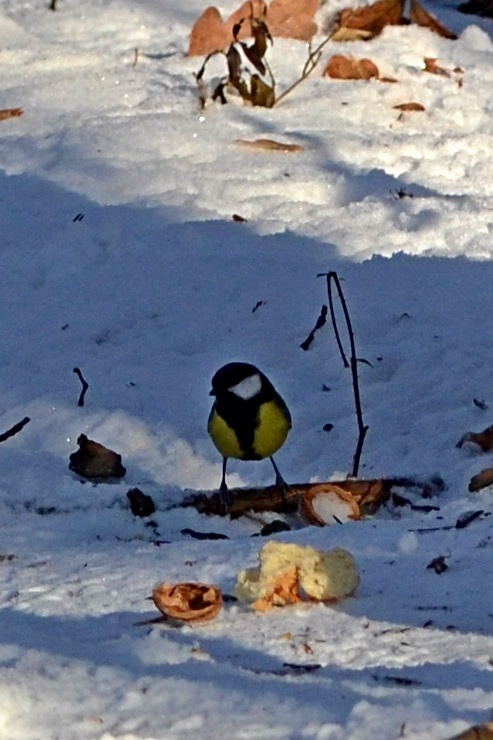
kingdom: Animalia
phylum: Chordata
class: Aves
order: Passeriformes
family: Paridae
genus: Parus
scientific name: Parus major
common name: Great tit
